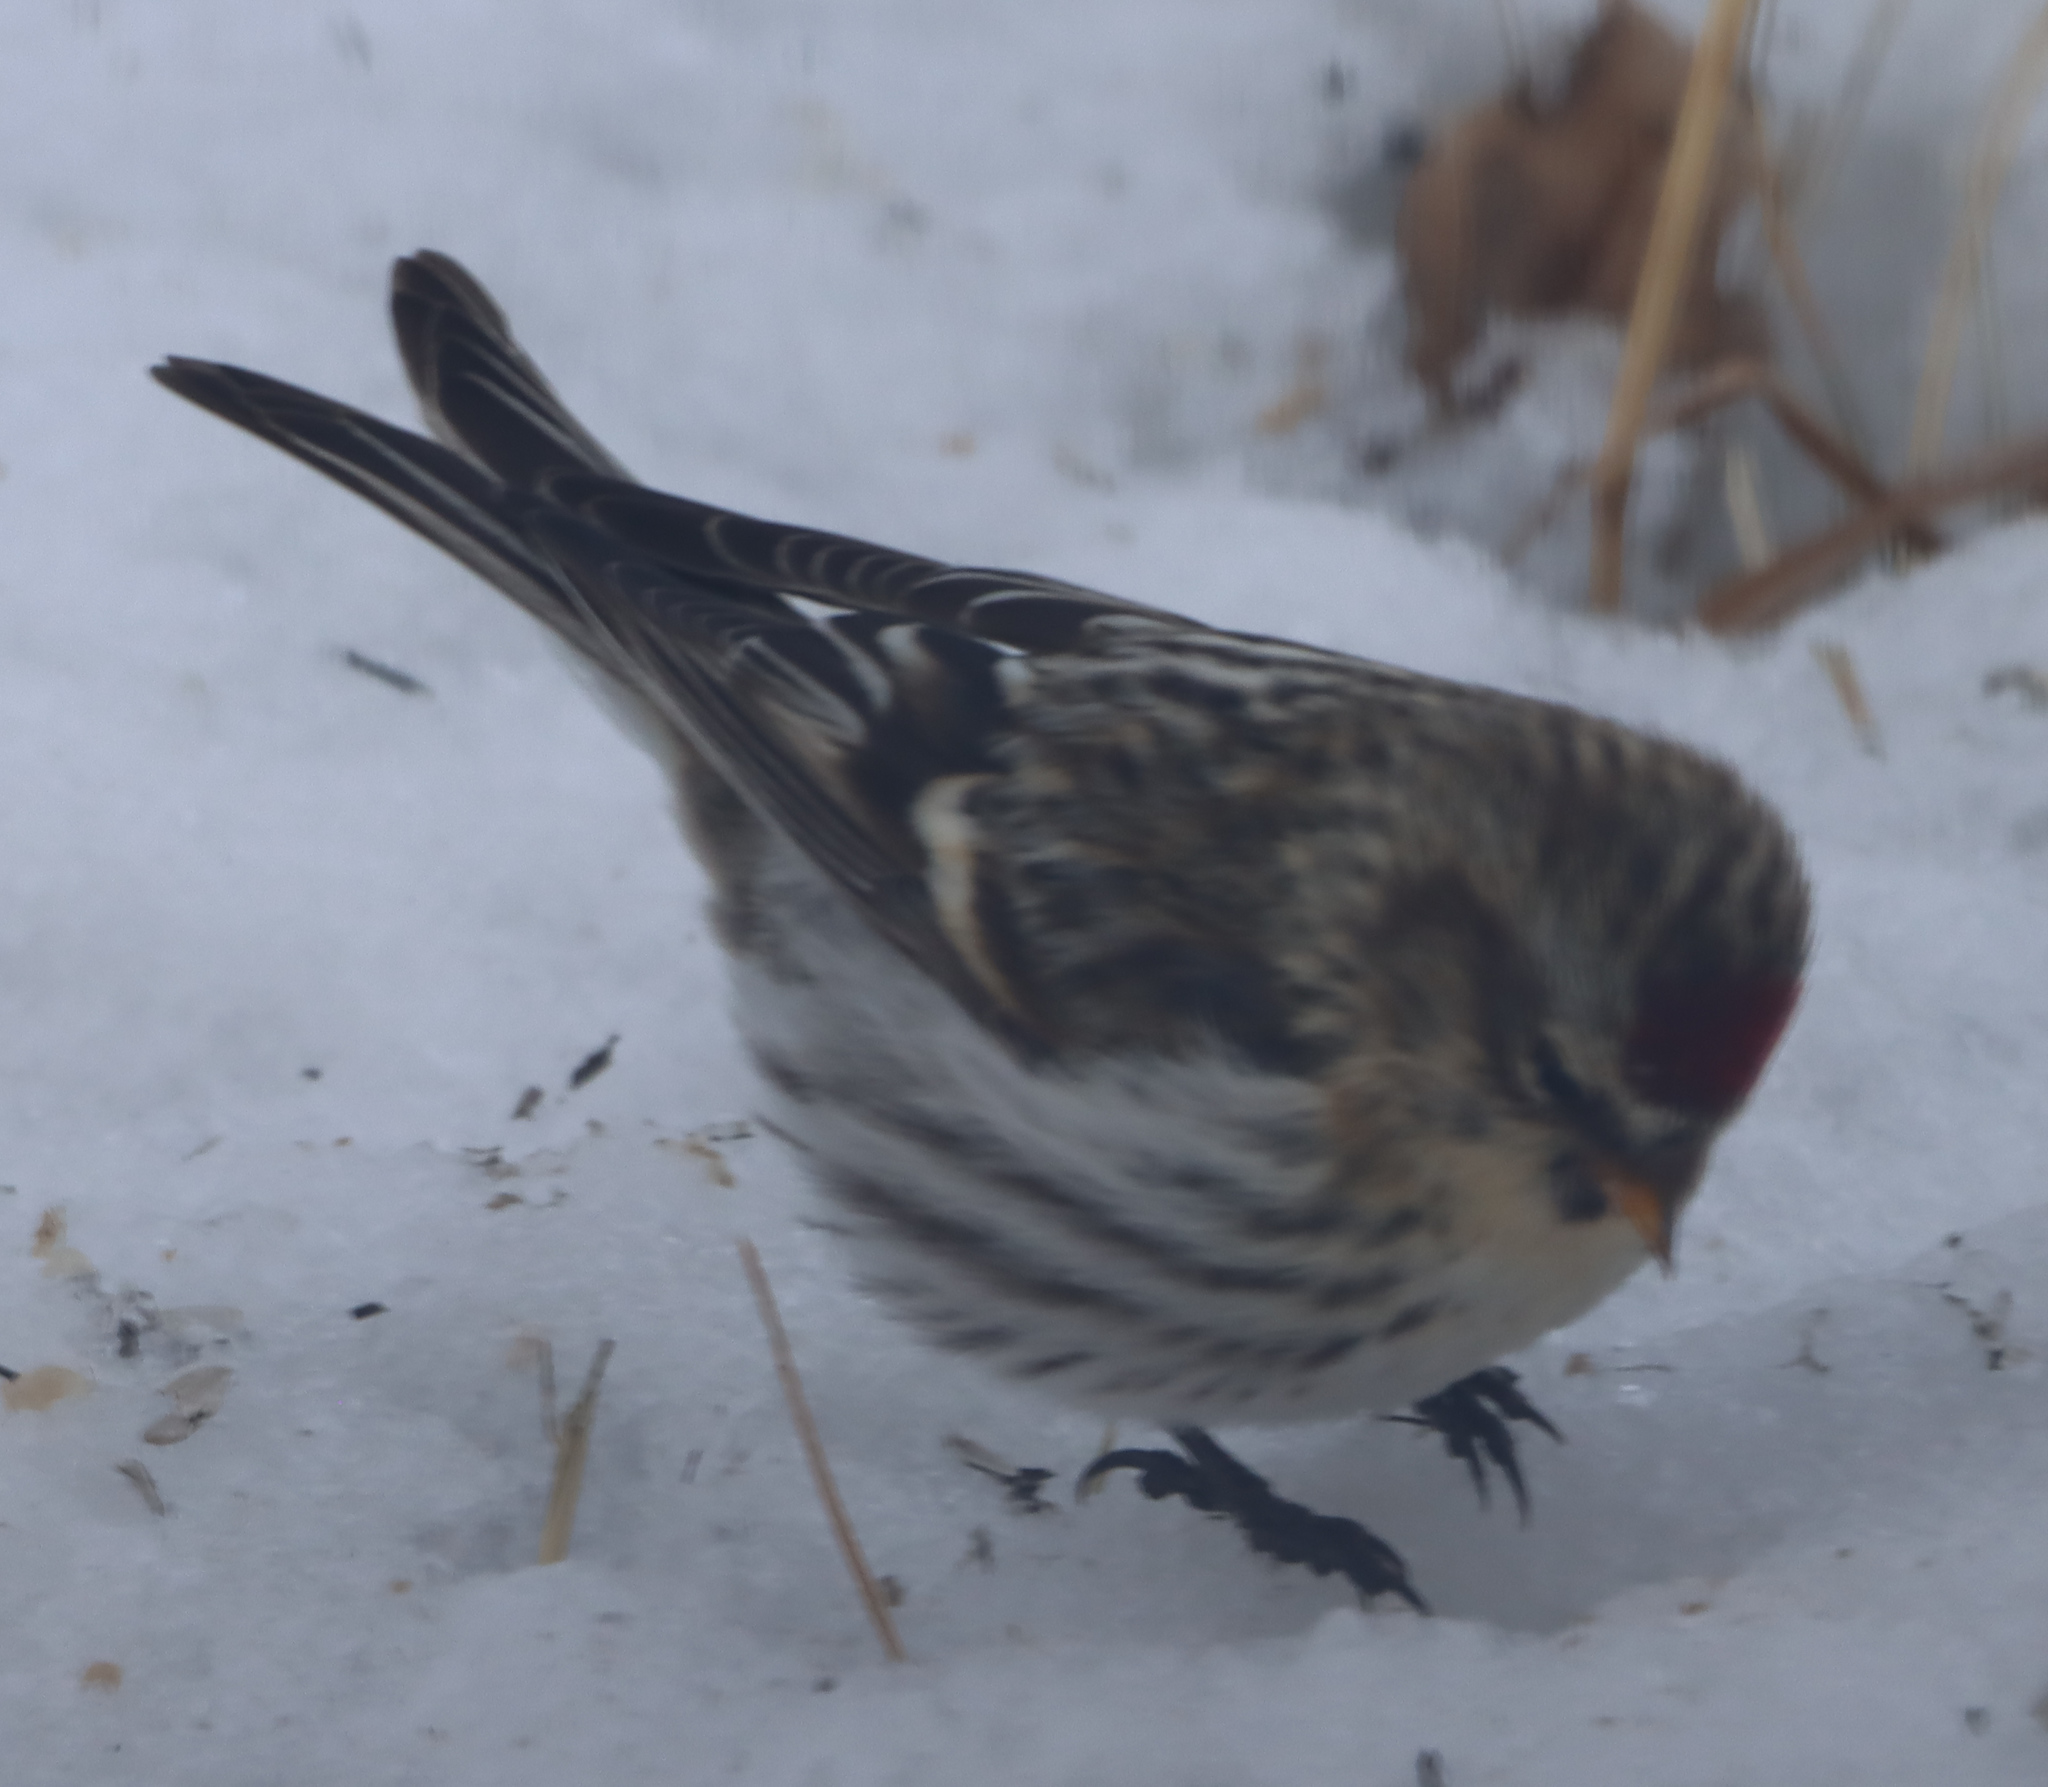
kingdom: Animalia
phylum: Chordata
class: Aves
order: Passeriformes
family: Fringillidae
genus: Acanthis
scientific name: Acanthis flammea
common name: Common redpoll
